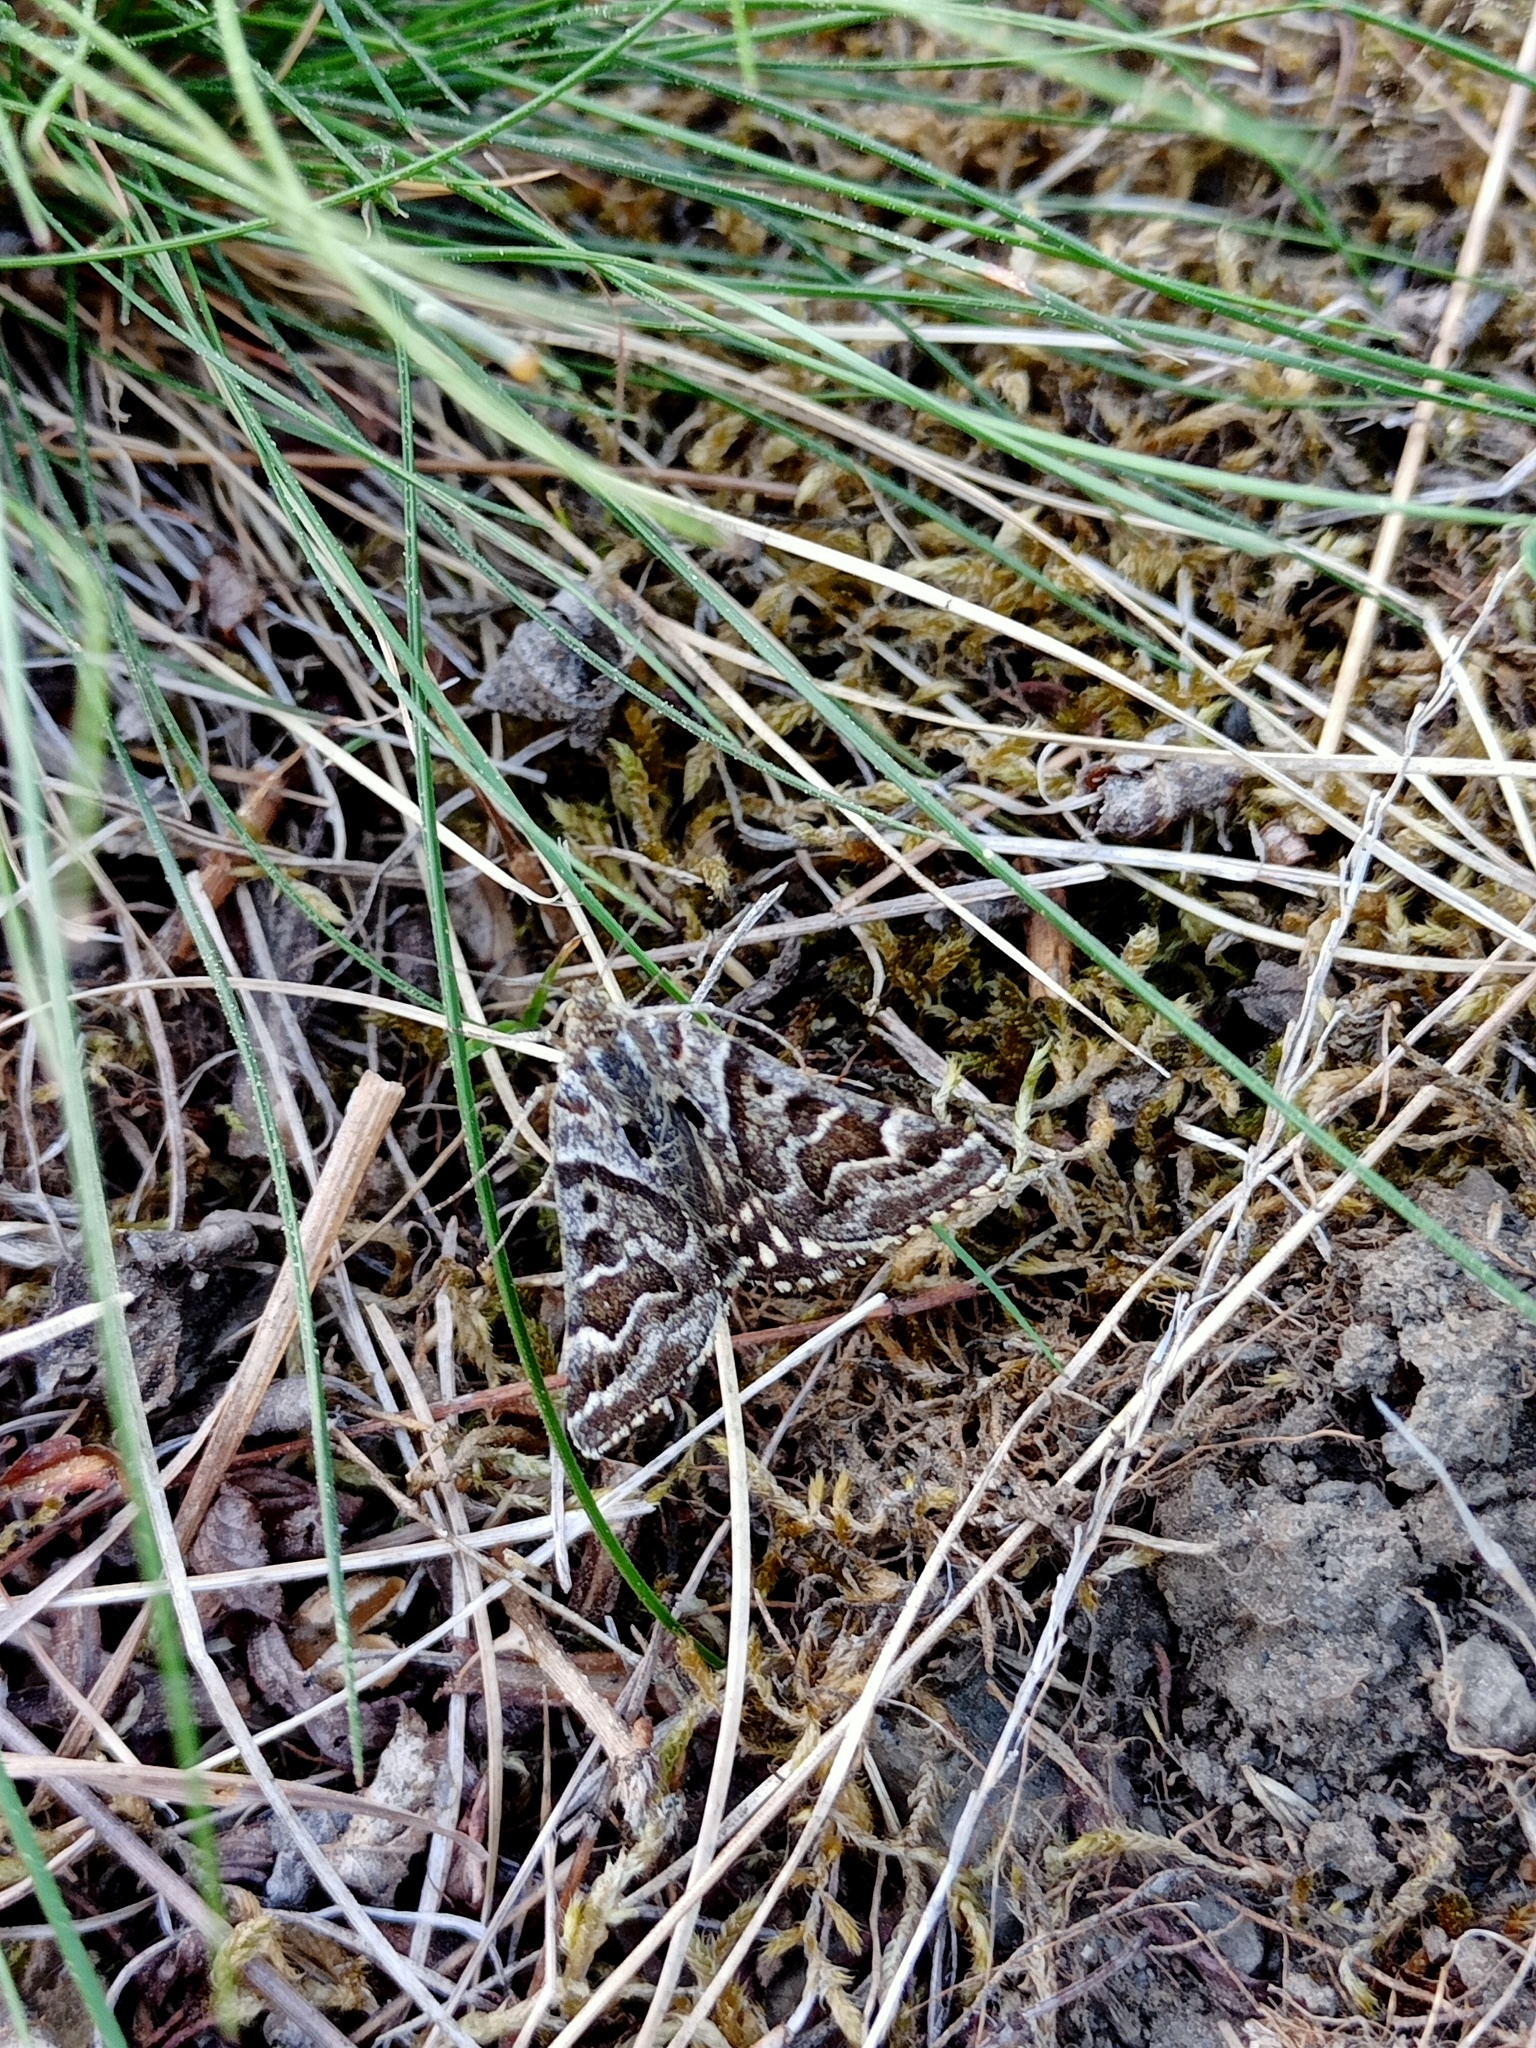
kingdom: Animalia
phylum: Arthropoda
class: Insecta
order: Lepidoptera
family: Erebidae
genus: Callistege
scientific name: Callistege mi
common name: Mother shipton
